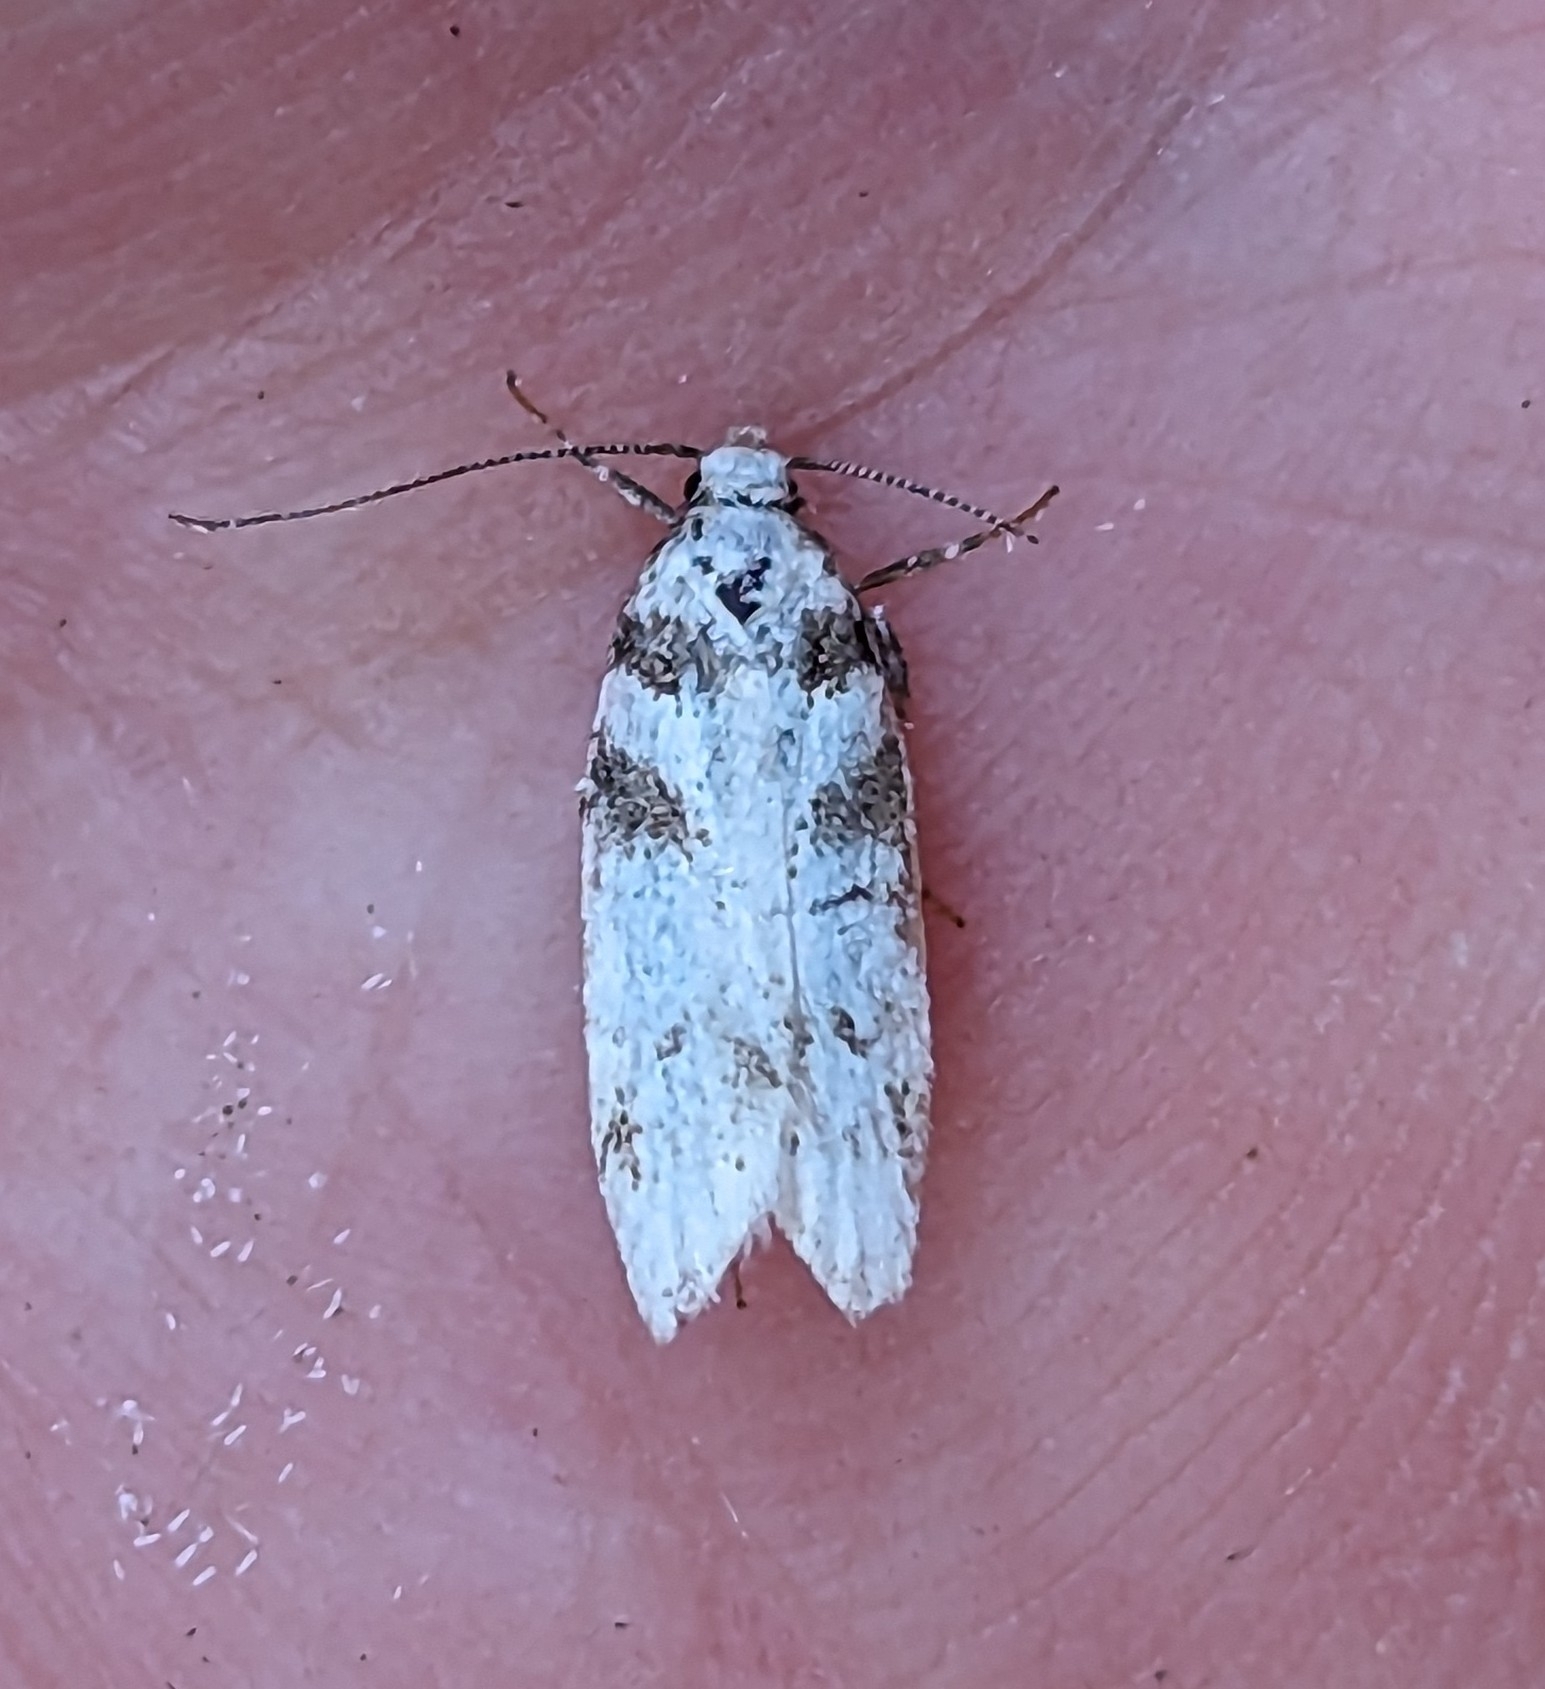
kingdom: Animalia
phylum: Arthropoda
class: Insecta
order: Lepidoptera
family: Gelechiidae
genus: Chionodes
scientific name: Chionodes lictor
